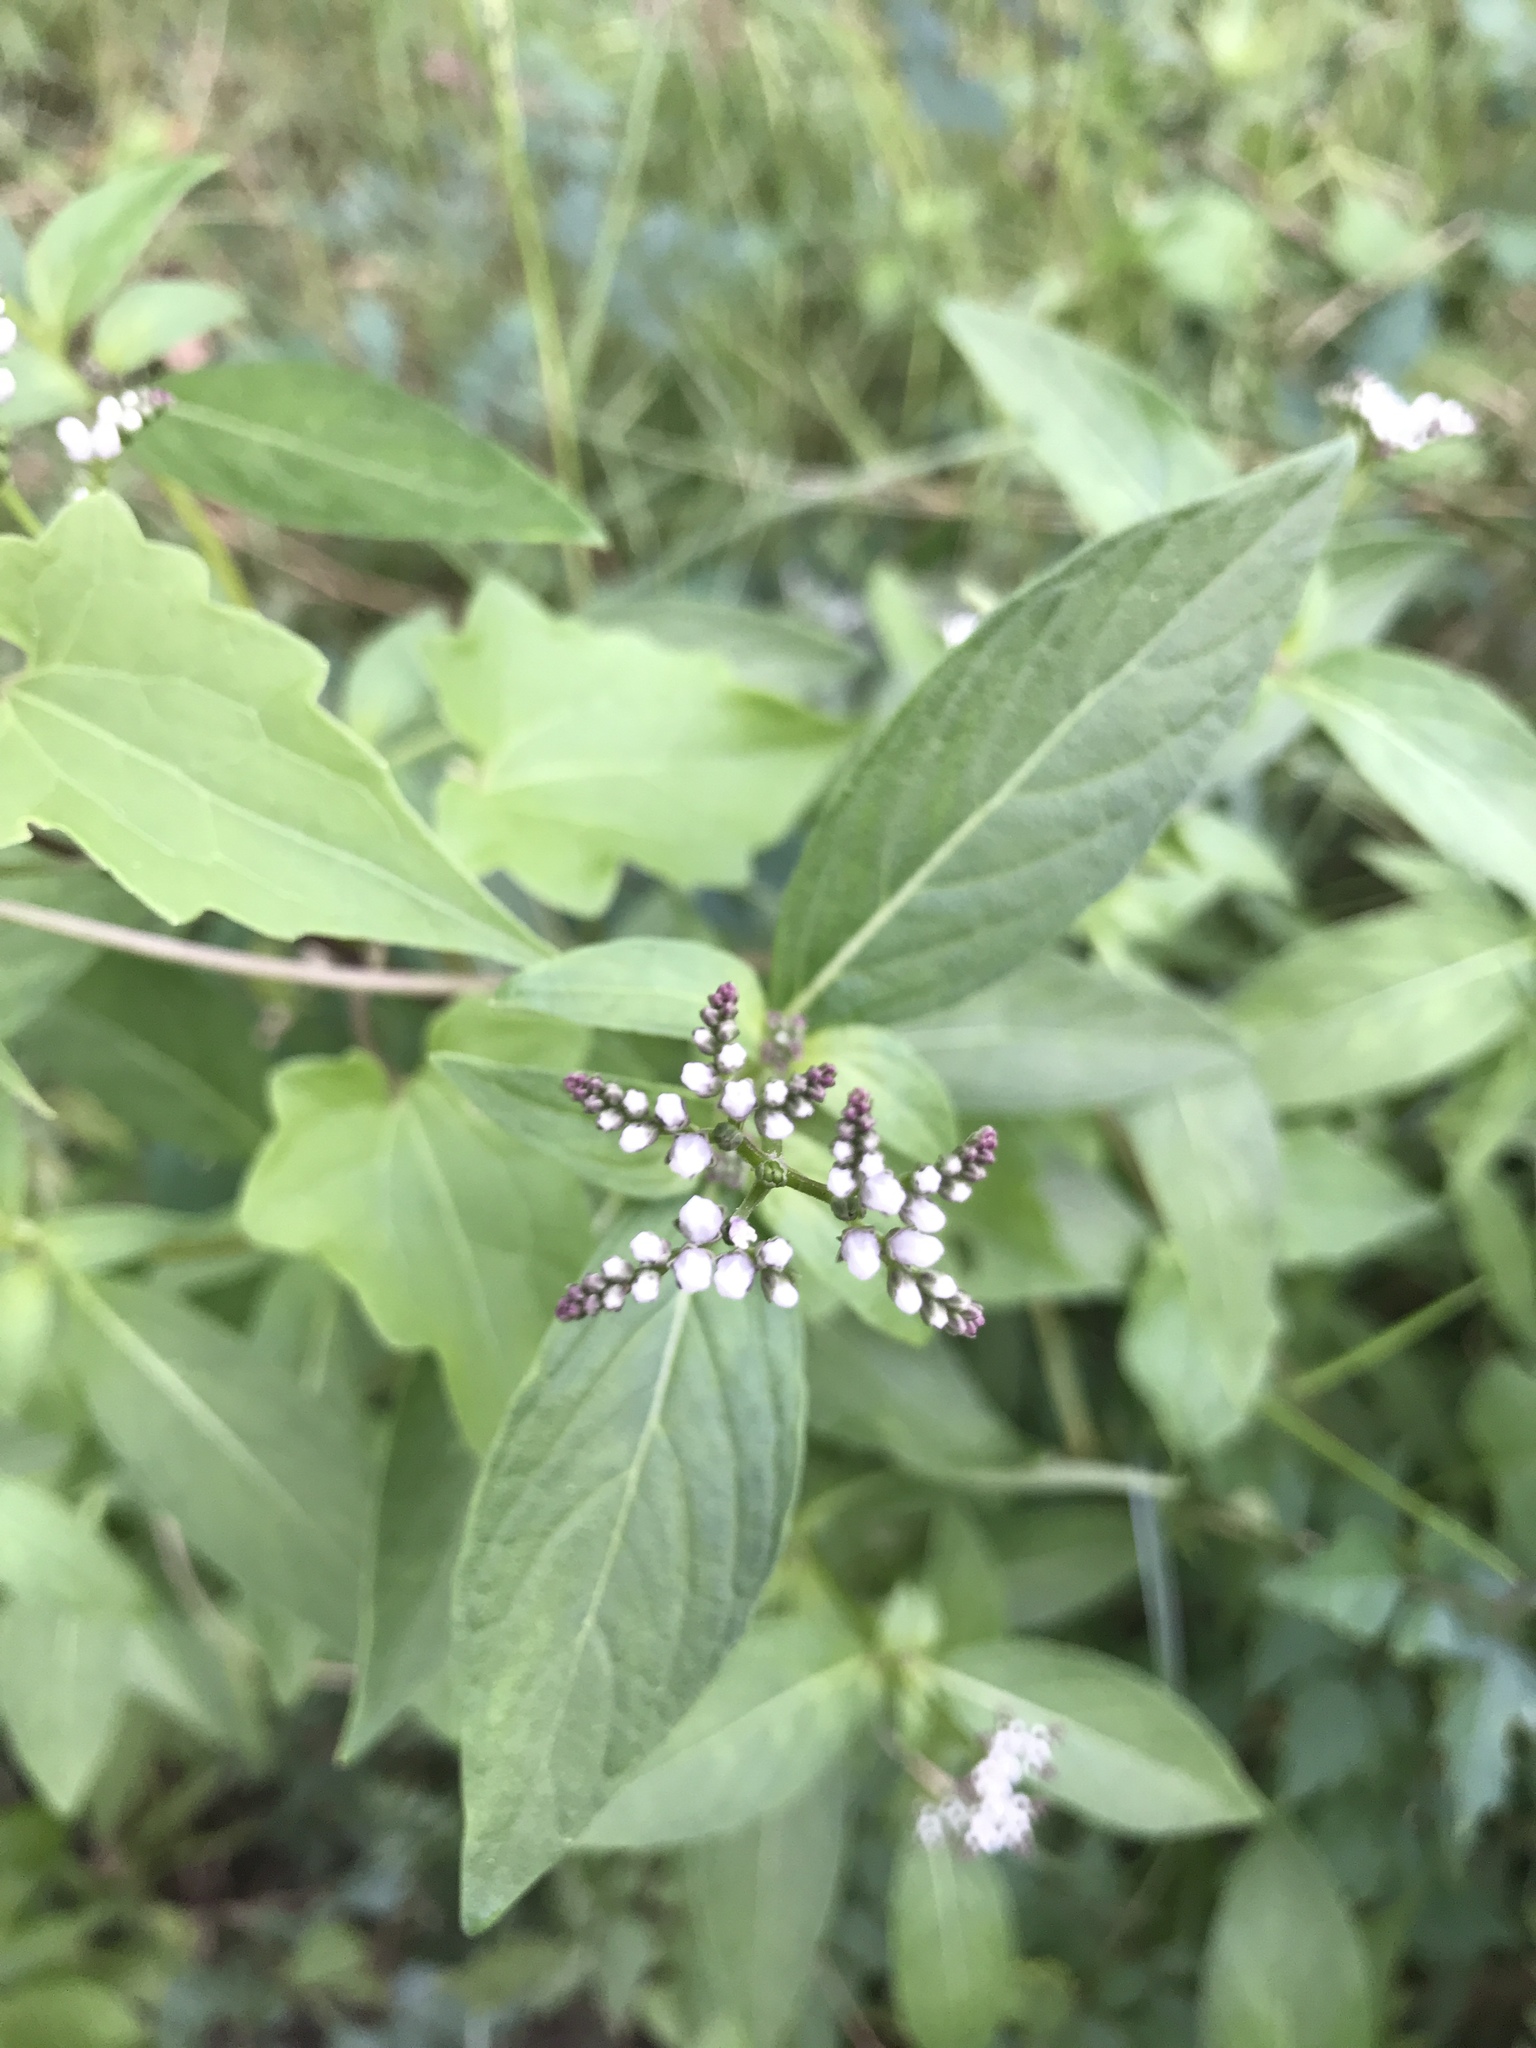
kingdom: Plantae
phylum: Tracheophyta
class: Magnoliopsida
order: Gentianales
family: Loganiaceae
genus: Mitreola
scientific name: Mitreola petiolata
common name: Lax hornpod
